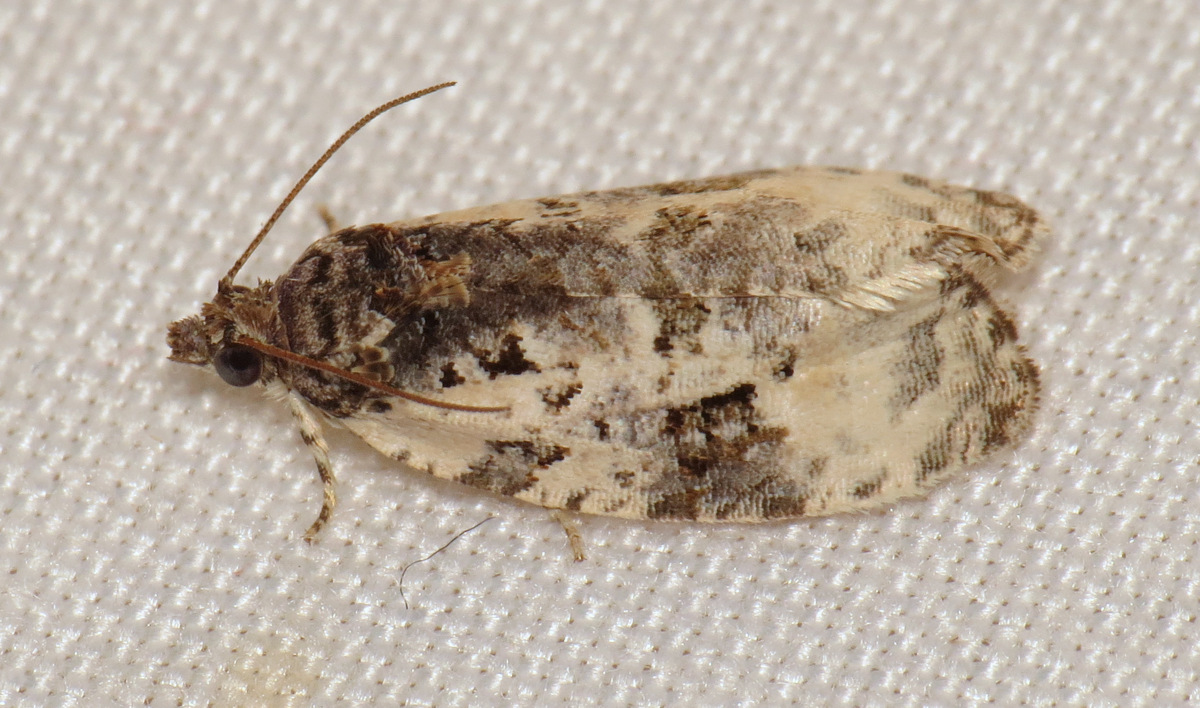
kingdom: Animalia
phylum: Arthropoda
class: Insecta
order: Lepidoptera
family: Tortricidae
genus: Apotomis
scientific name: Apotomis albeolana
